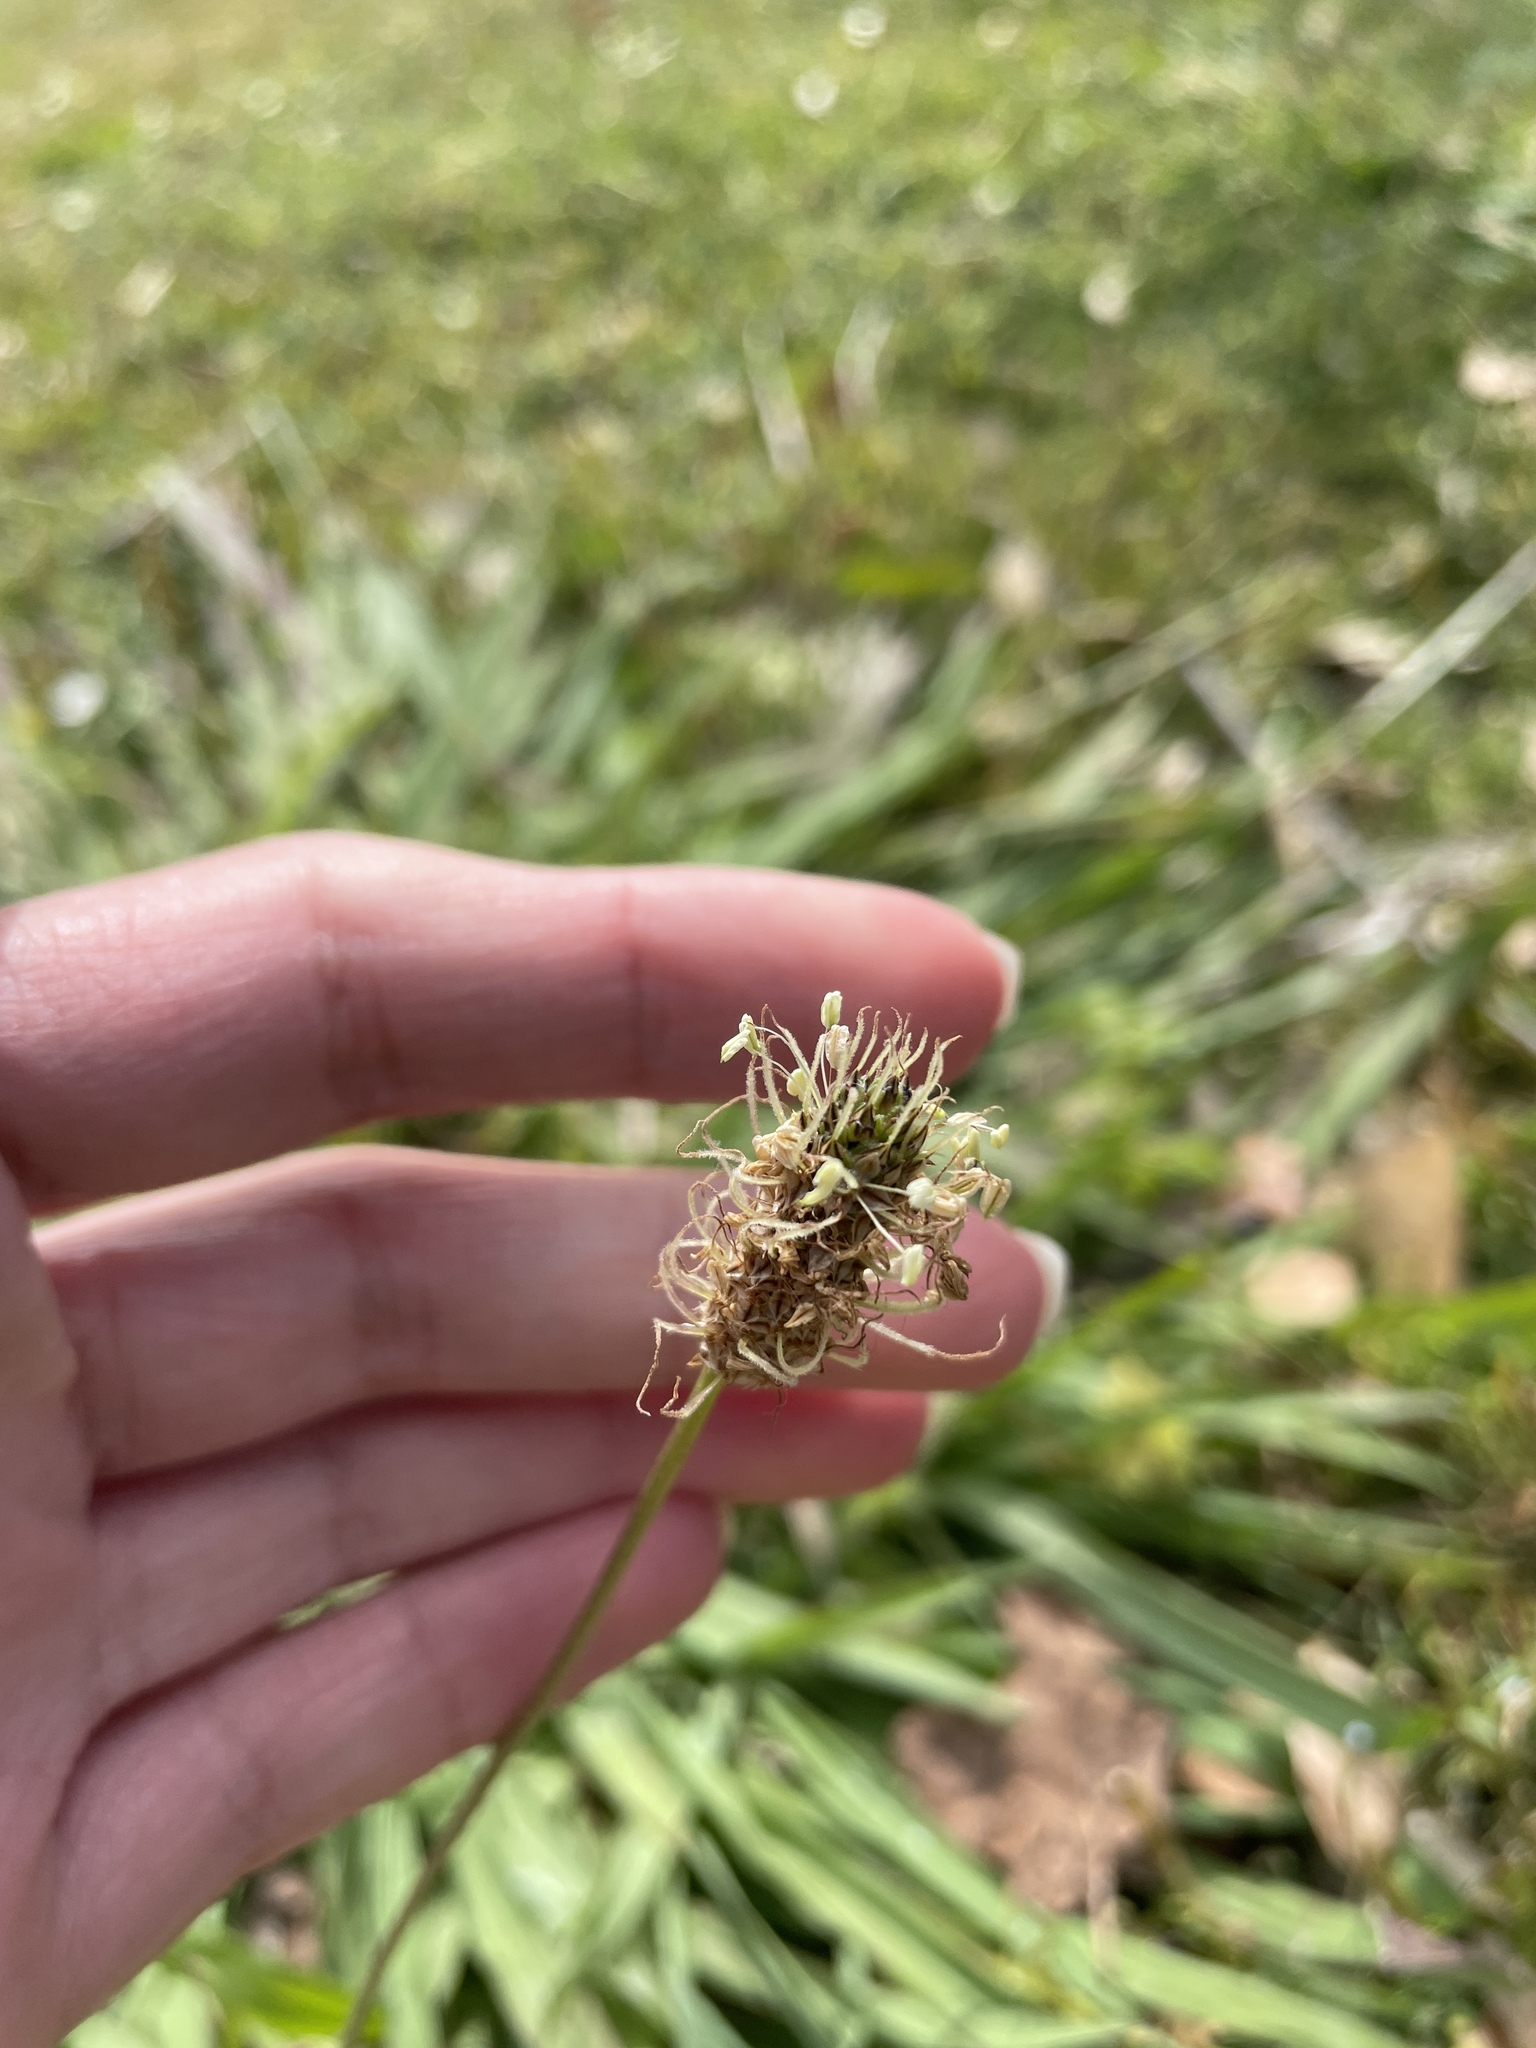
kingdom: Plantae
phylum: Tracheophyta
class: Magnoliopsida
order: Lamiales
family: Plantaginaceae
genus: Plantago
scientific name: Plantago lanceolata
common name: Ribwort plantain
